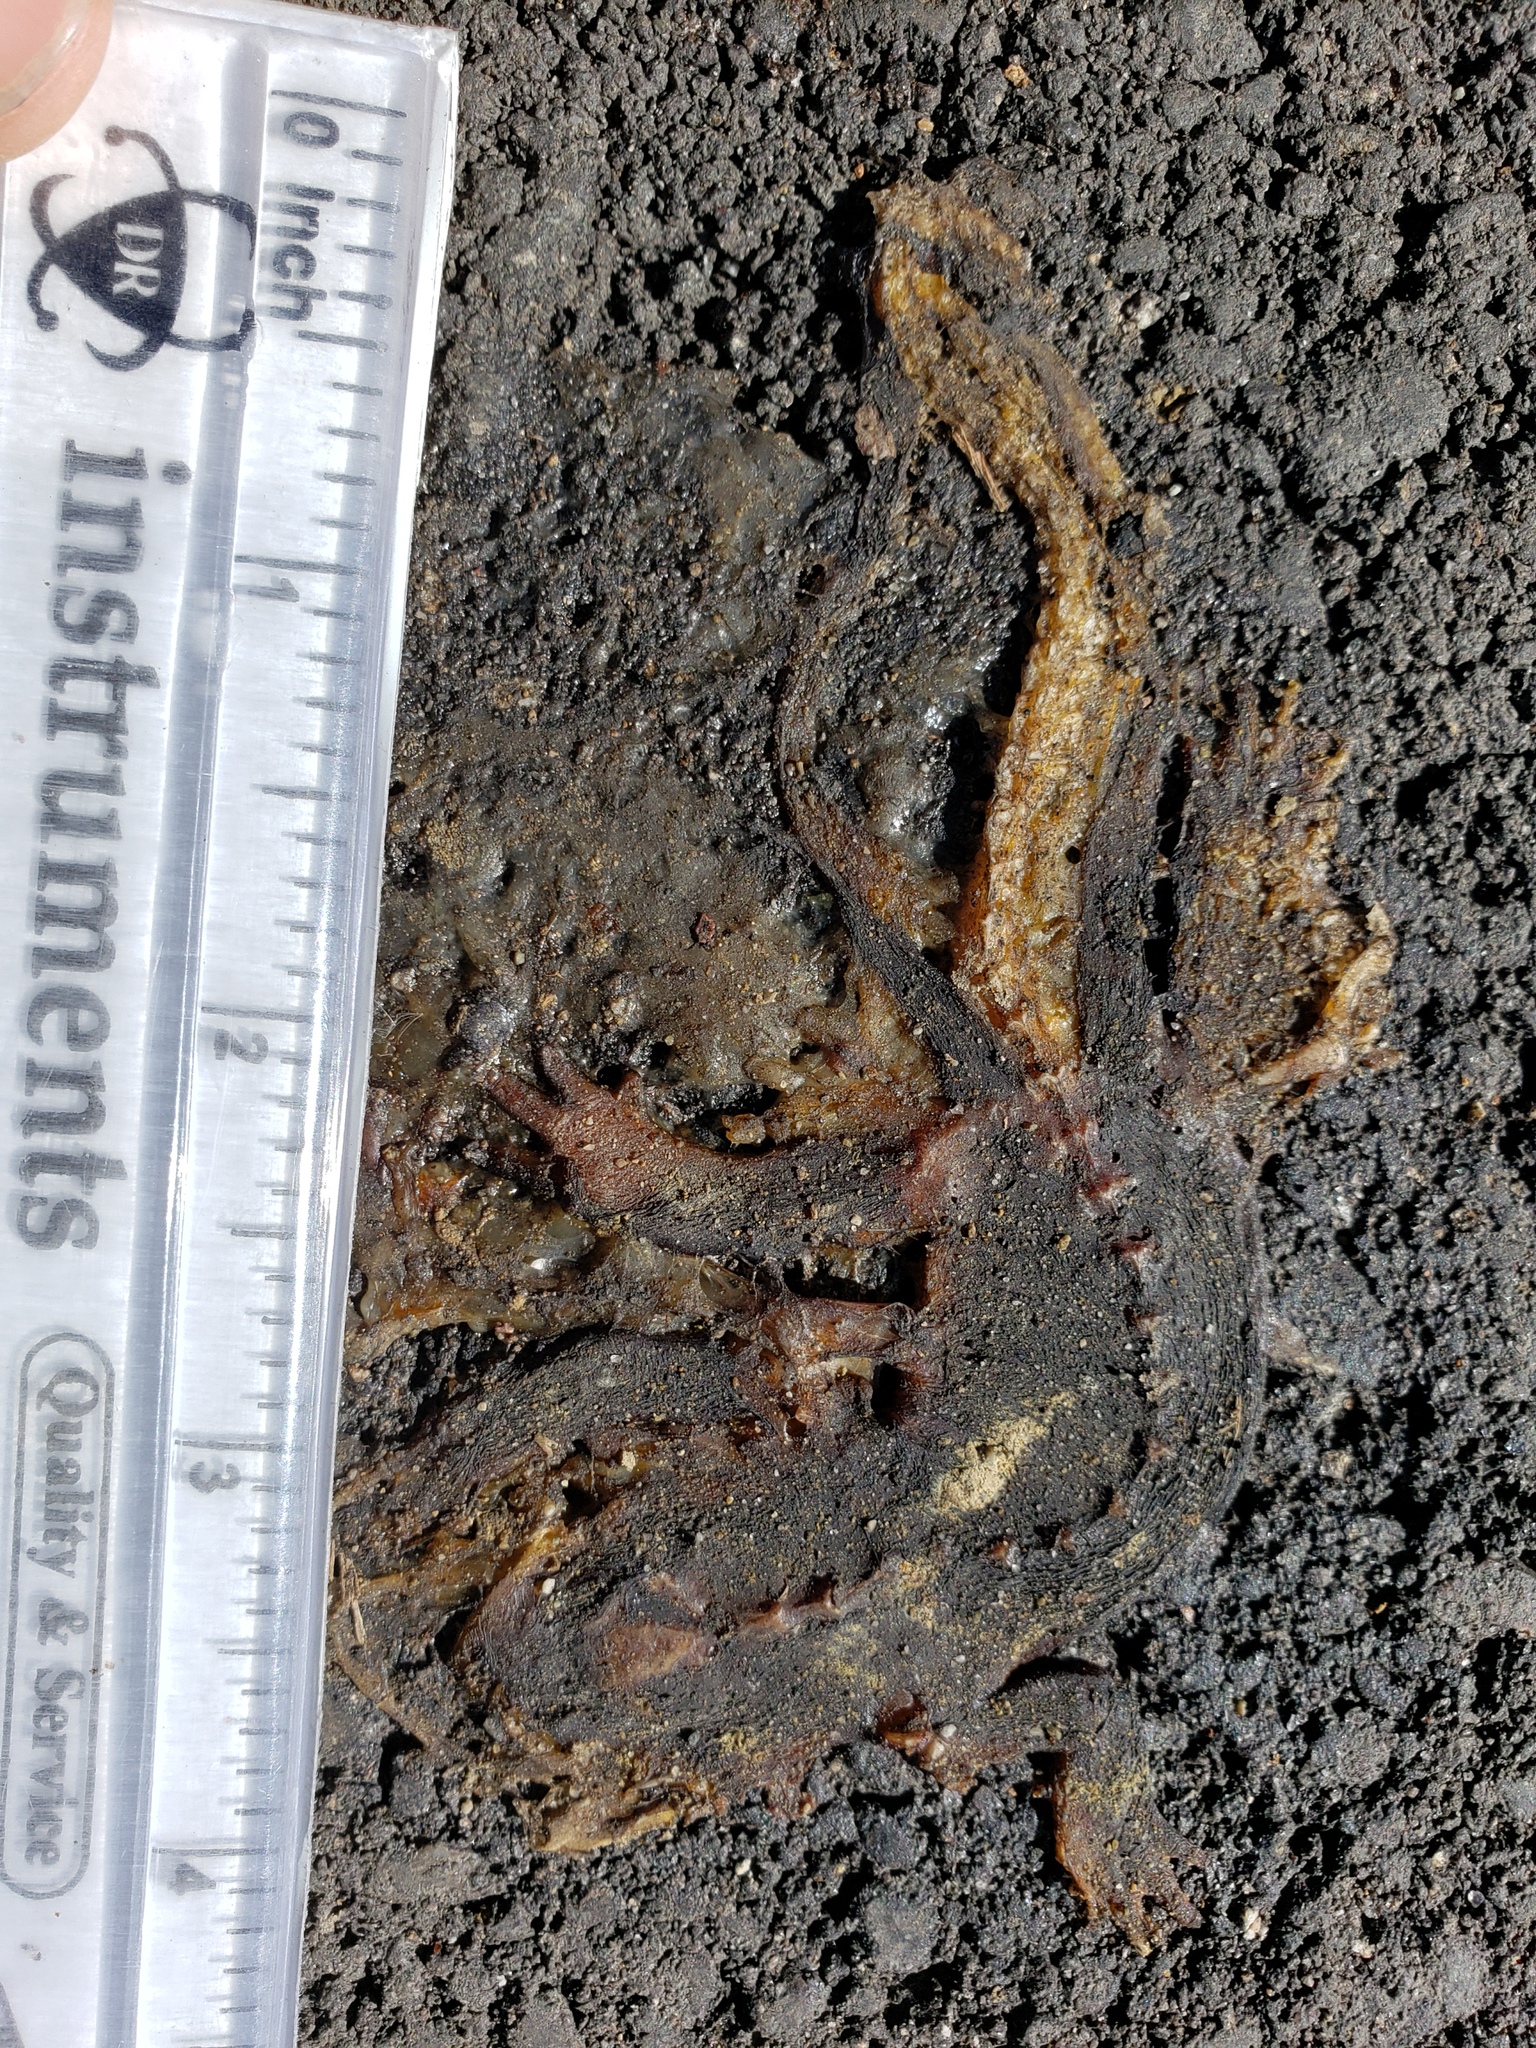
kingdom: Animalia
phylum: Chordata
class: Amphibia
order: Caudata
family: Salamandridae
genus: Taricha
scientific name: Taricha
